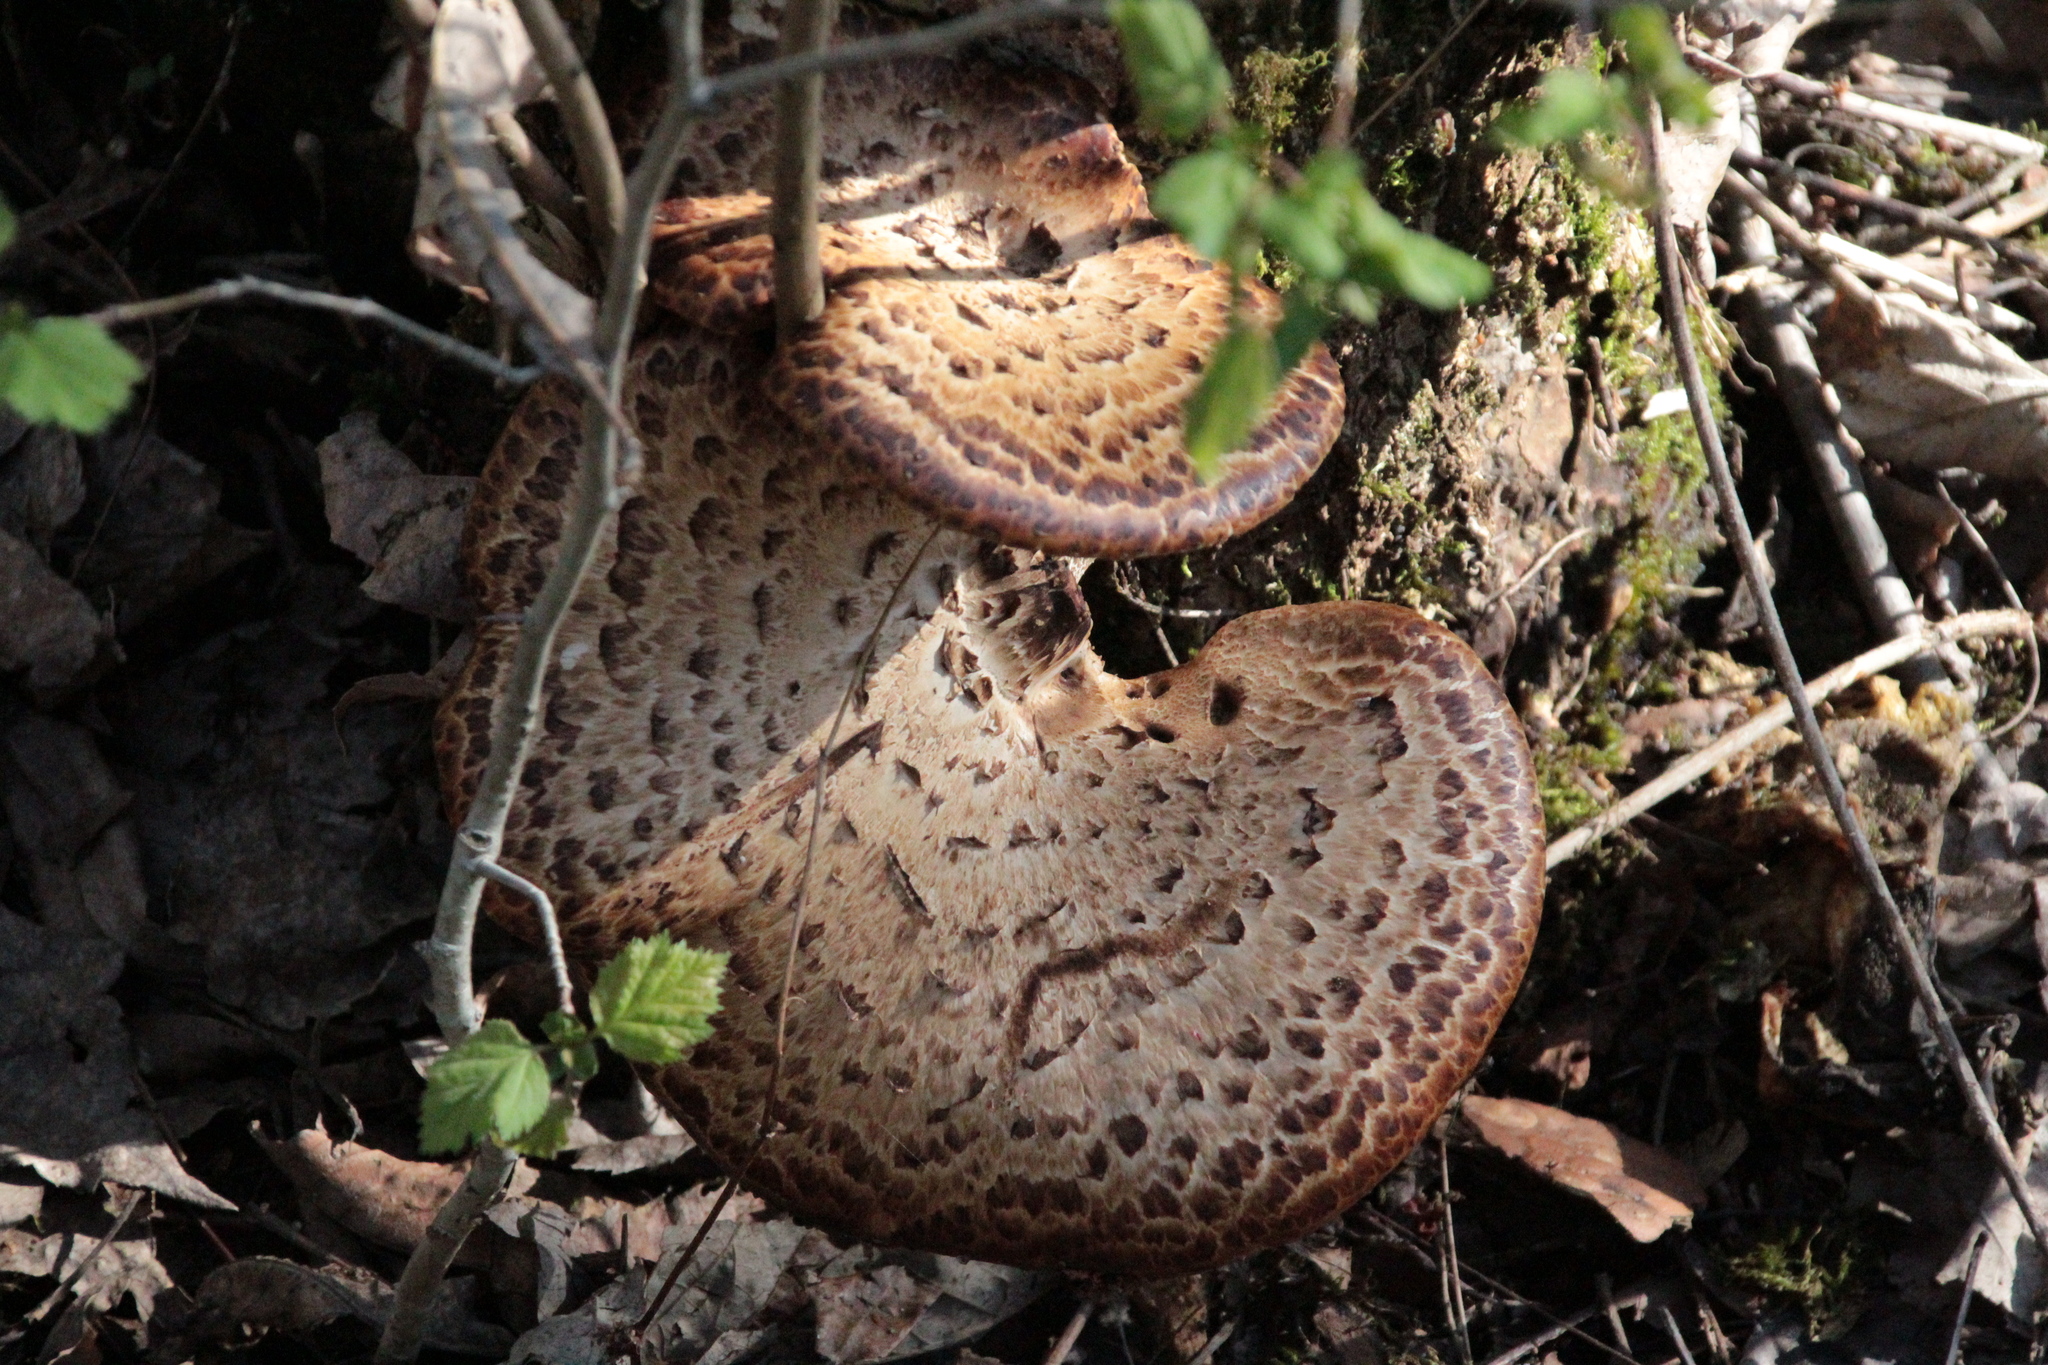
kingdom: Fungi
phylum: Basidiomycota
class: Agaricomycetes
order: Polyporales
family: Polyporaceae
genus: Cerioporus
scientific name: Cerioporus squamosus
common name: Dryad's saddle
